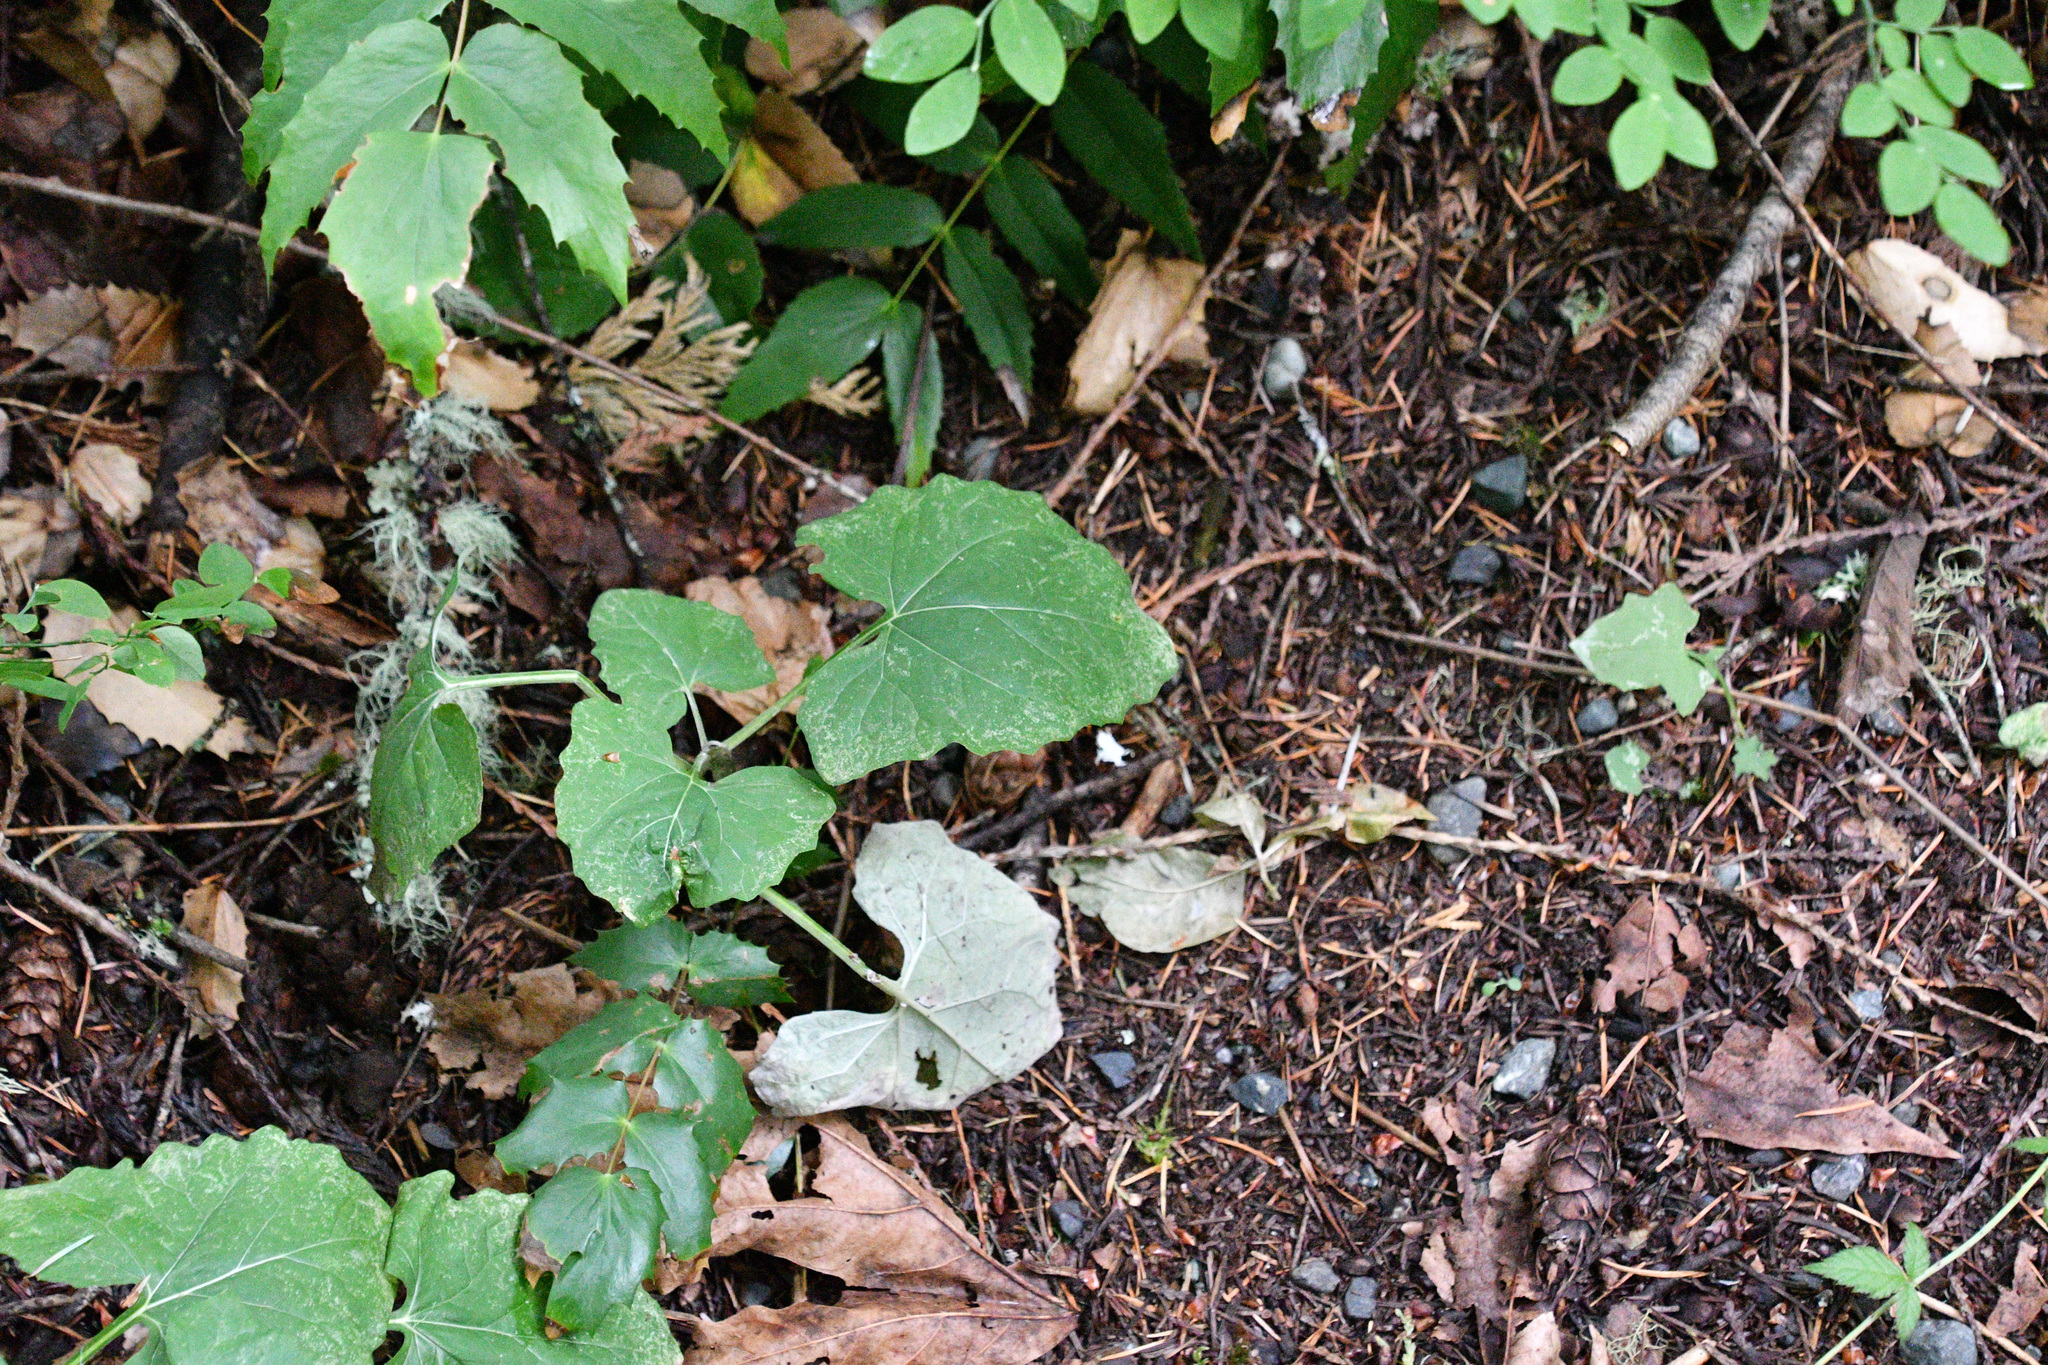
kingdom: Plantae
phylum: Tracheophyta
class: Magnoliopsida
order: Asterales
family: Asteraceae
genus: Adenocaulon
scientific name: Adenocaulon bicolor
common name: Trailplant
